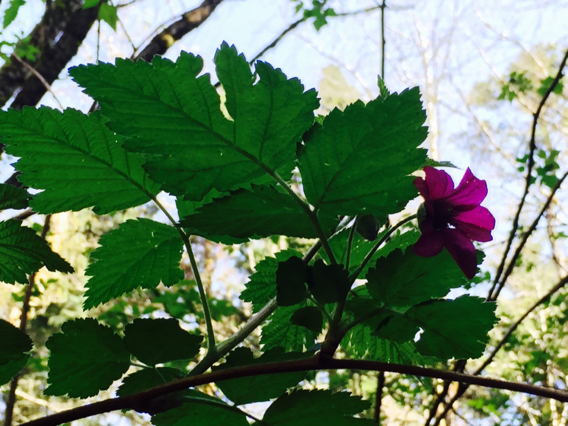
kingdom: Plantae
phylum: Tracheophyta
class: Magnoliopsida
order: Rosales
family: Rosaceae
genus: Rubus
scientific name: Rubus spectabilis
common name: Salmonberry
